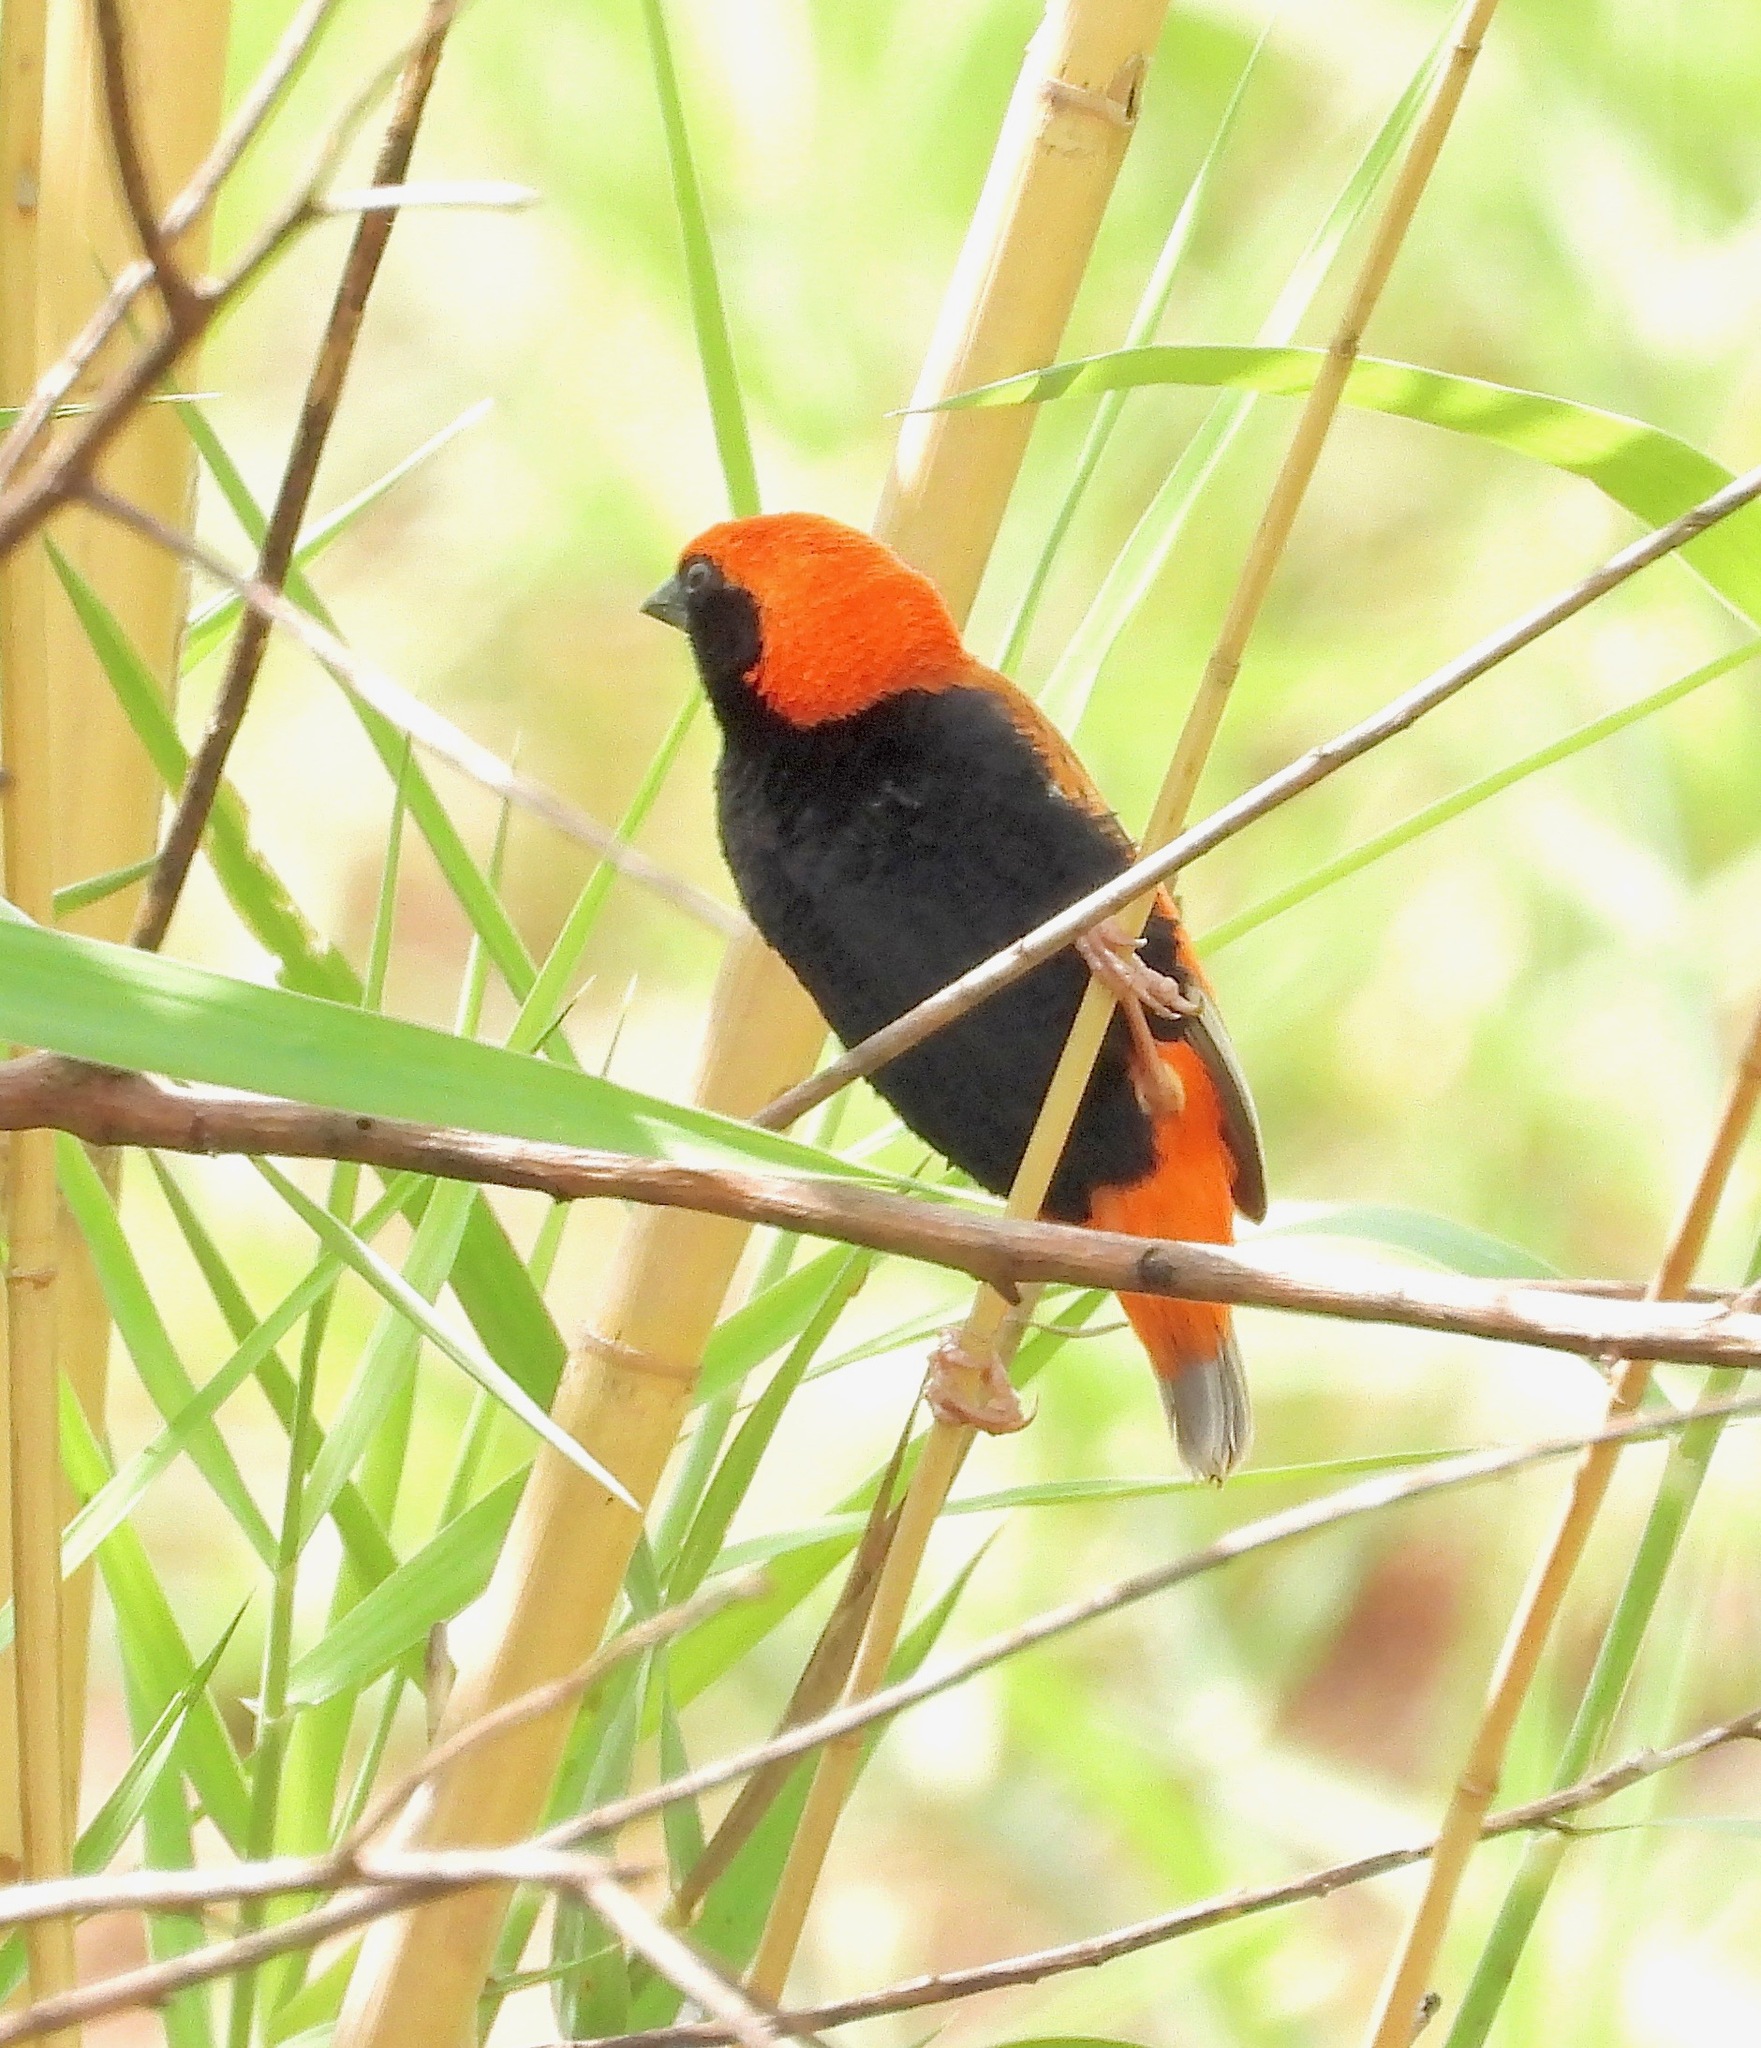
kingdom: Animalia
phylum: Chordata
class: Aves
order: Passeriformes
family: Ploceidae
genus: Euplectes
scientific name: Euplectes nigroventris
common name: Zanzibar red bishop
